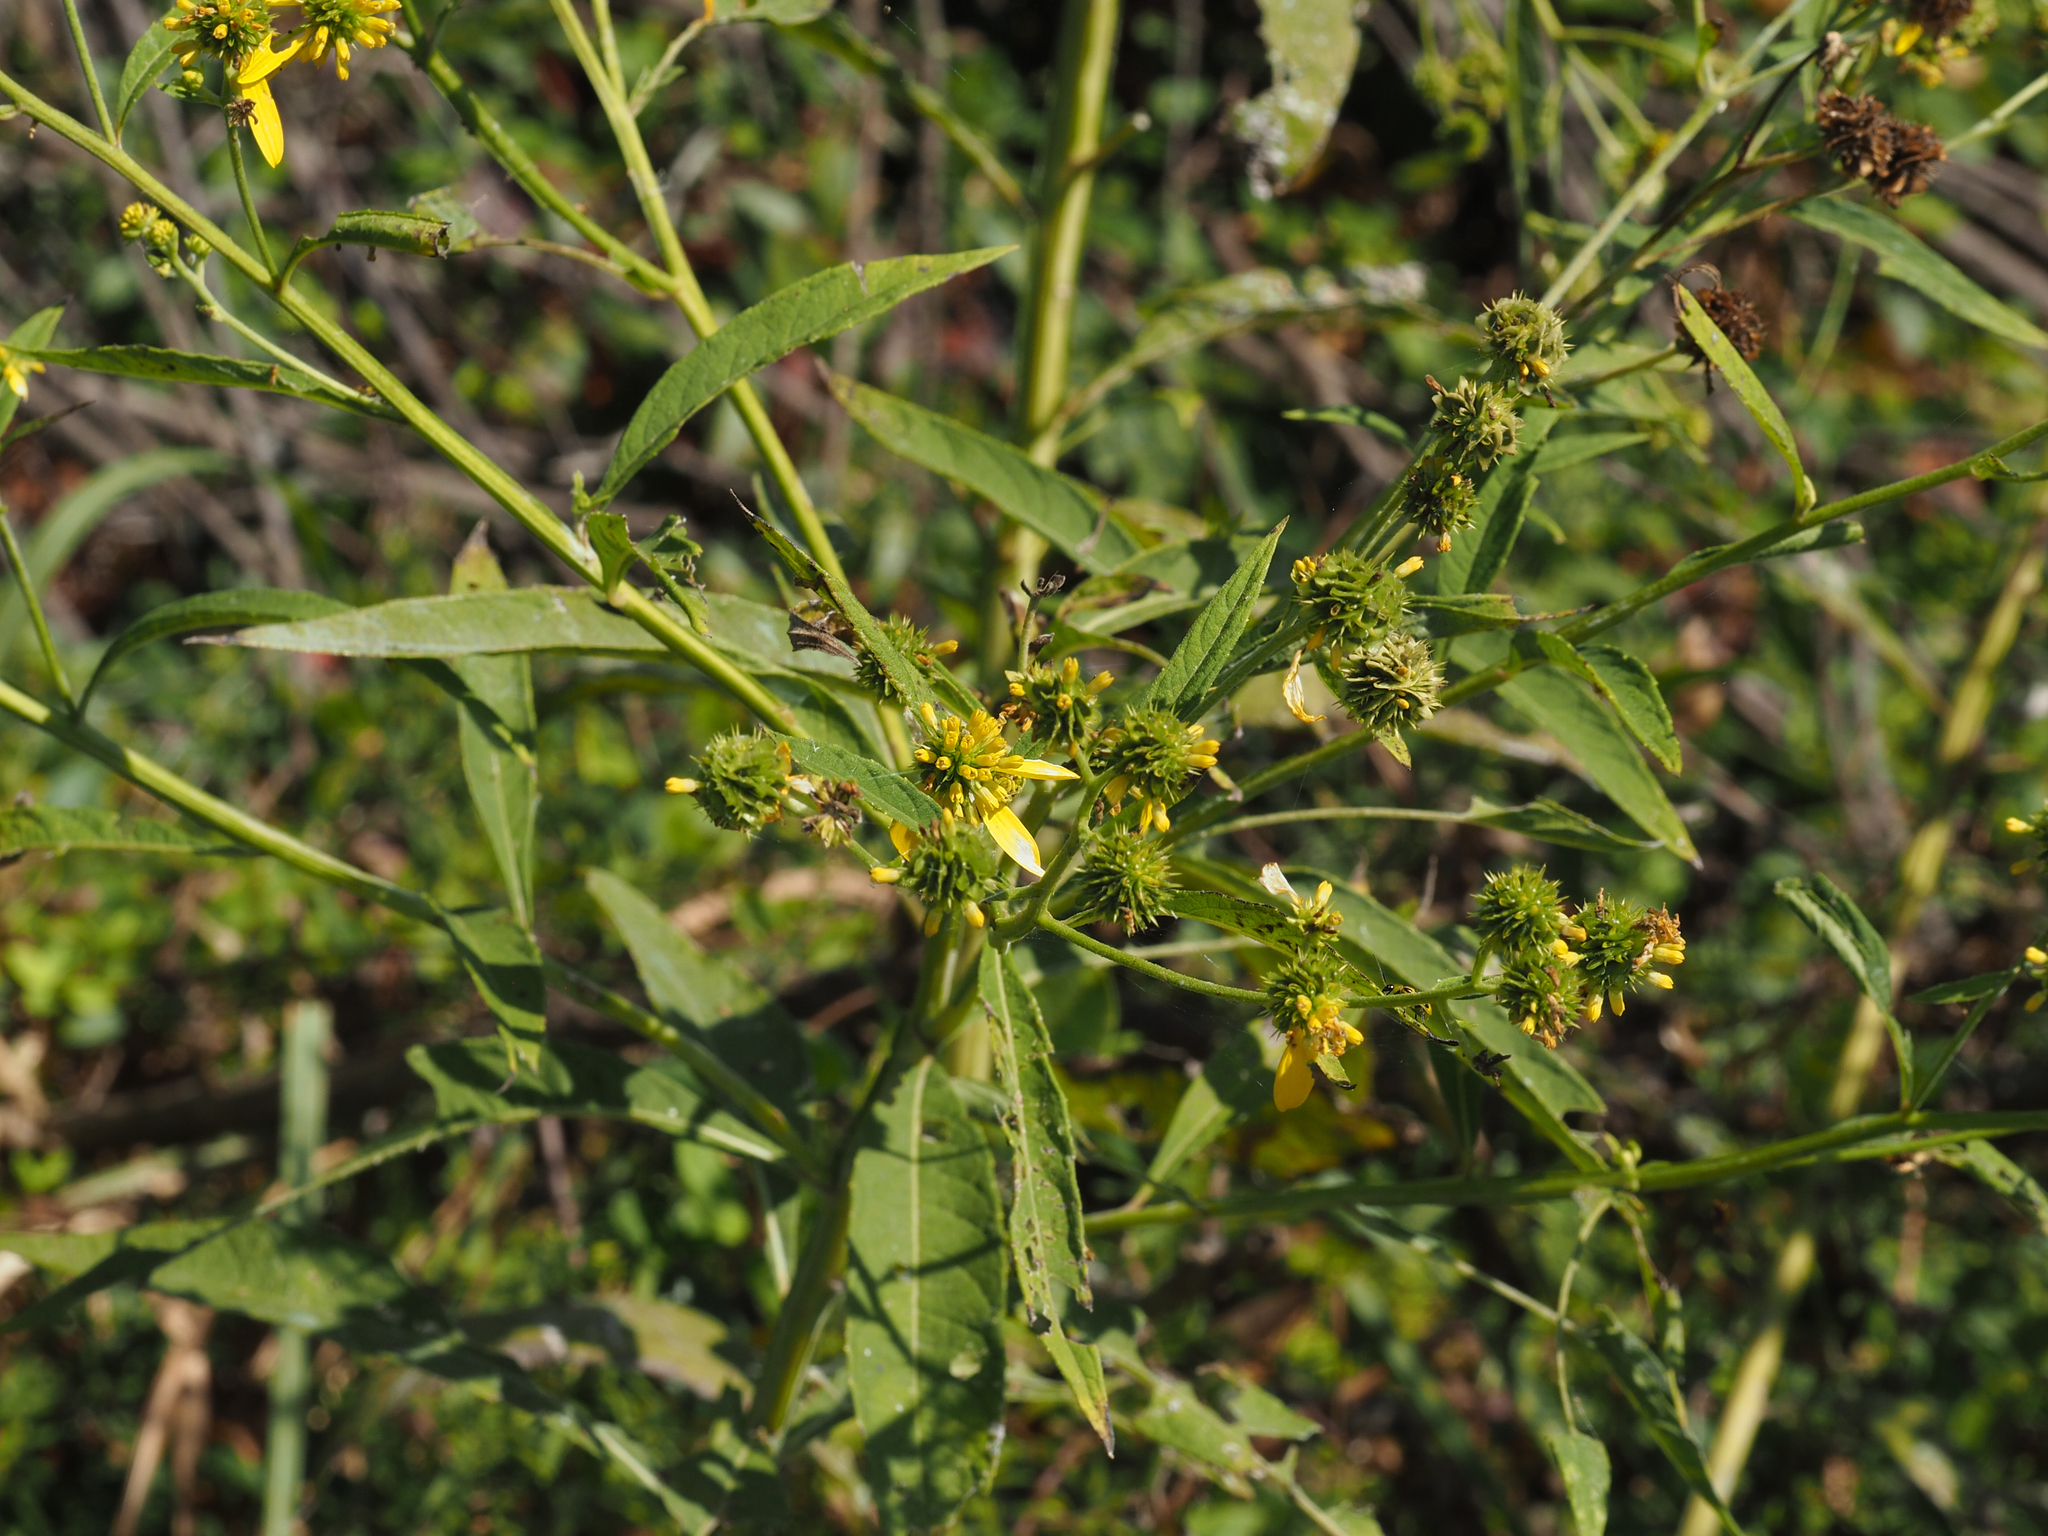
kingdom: Plantae
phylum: Tracheophyta
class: Magnoliopsida
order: Asterales
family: Asteraceae
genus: Verbesina
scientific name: Verbesina alternifolia
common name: Wingstem
